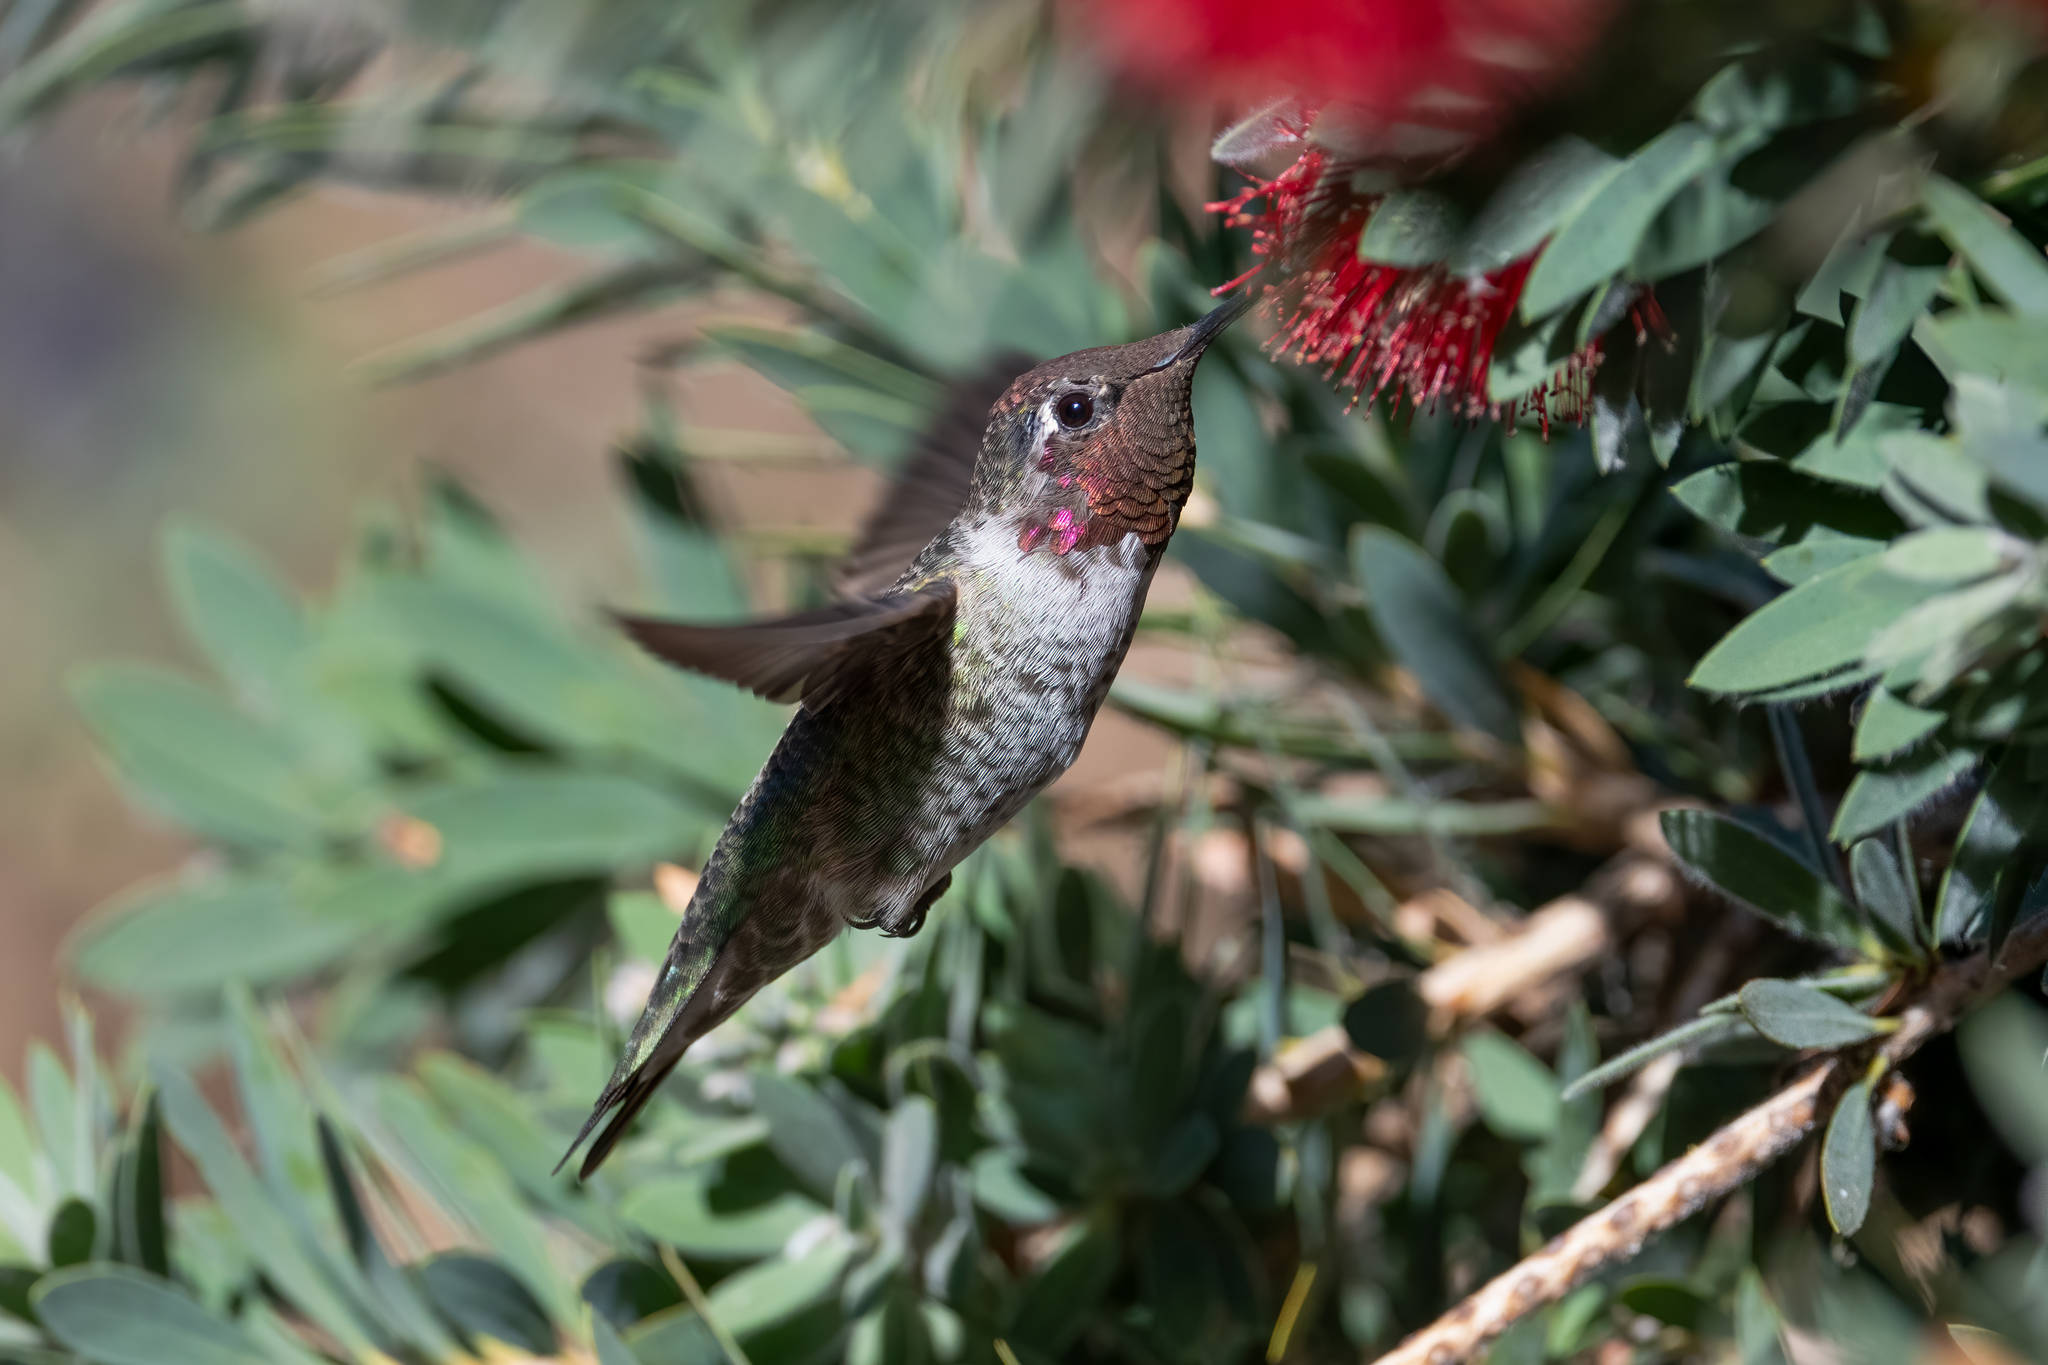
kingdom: Animalia
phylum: Chordata
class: Aves
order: Apodiformes
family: Trochilidae
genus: Calypte
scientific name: Calypte anna
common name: Anna's hummingbird
